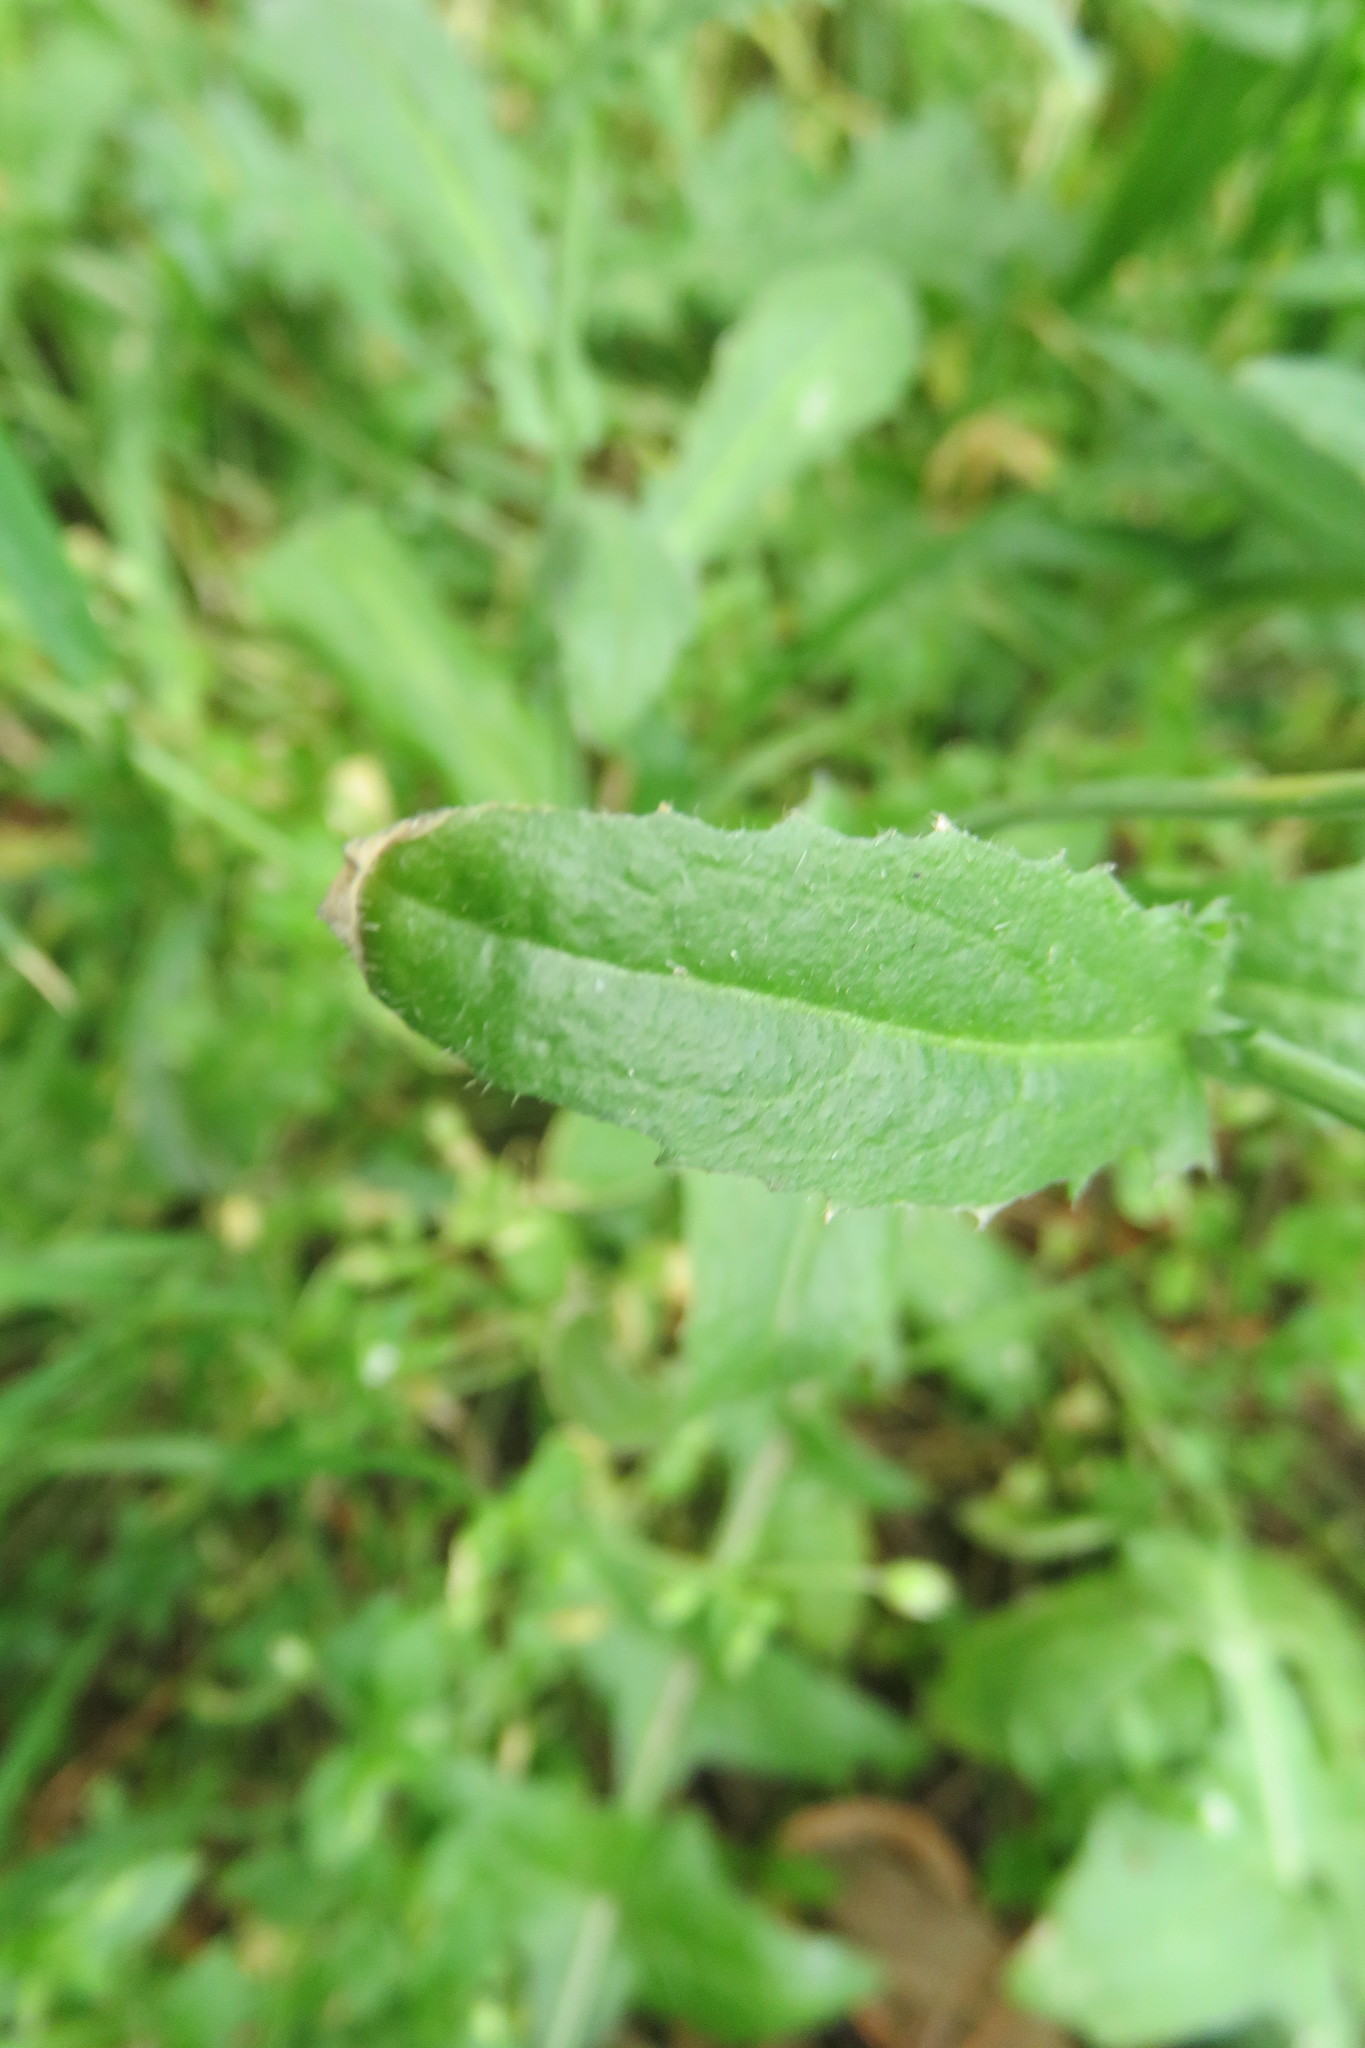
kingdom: Plantae
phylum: Tracheophyta
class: Magnoliopsida
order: Brassicales
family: Brassicaceae
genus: Capsella
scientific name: Capsella bursa-pastoris
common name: Shepherd's purse
